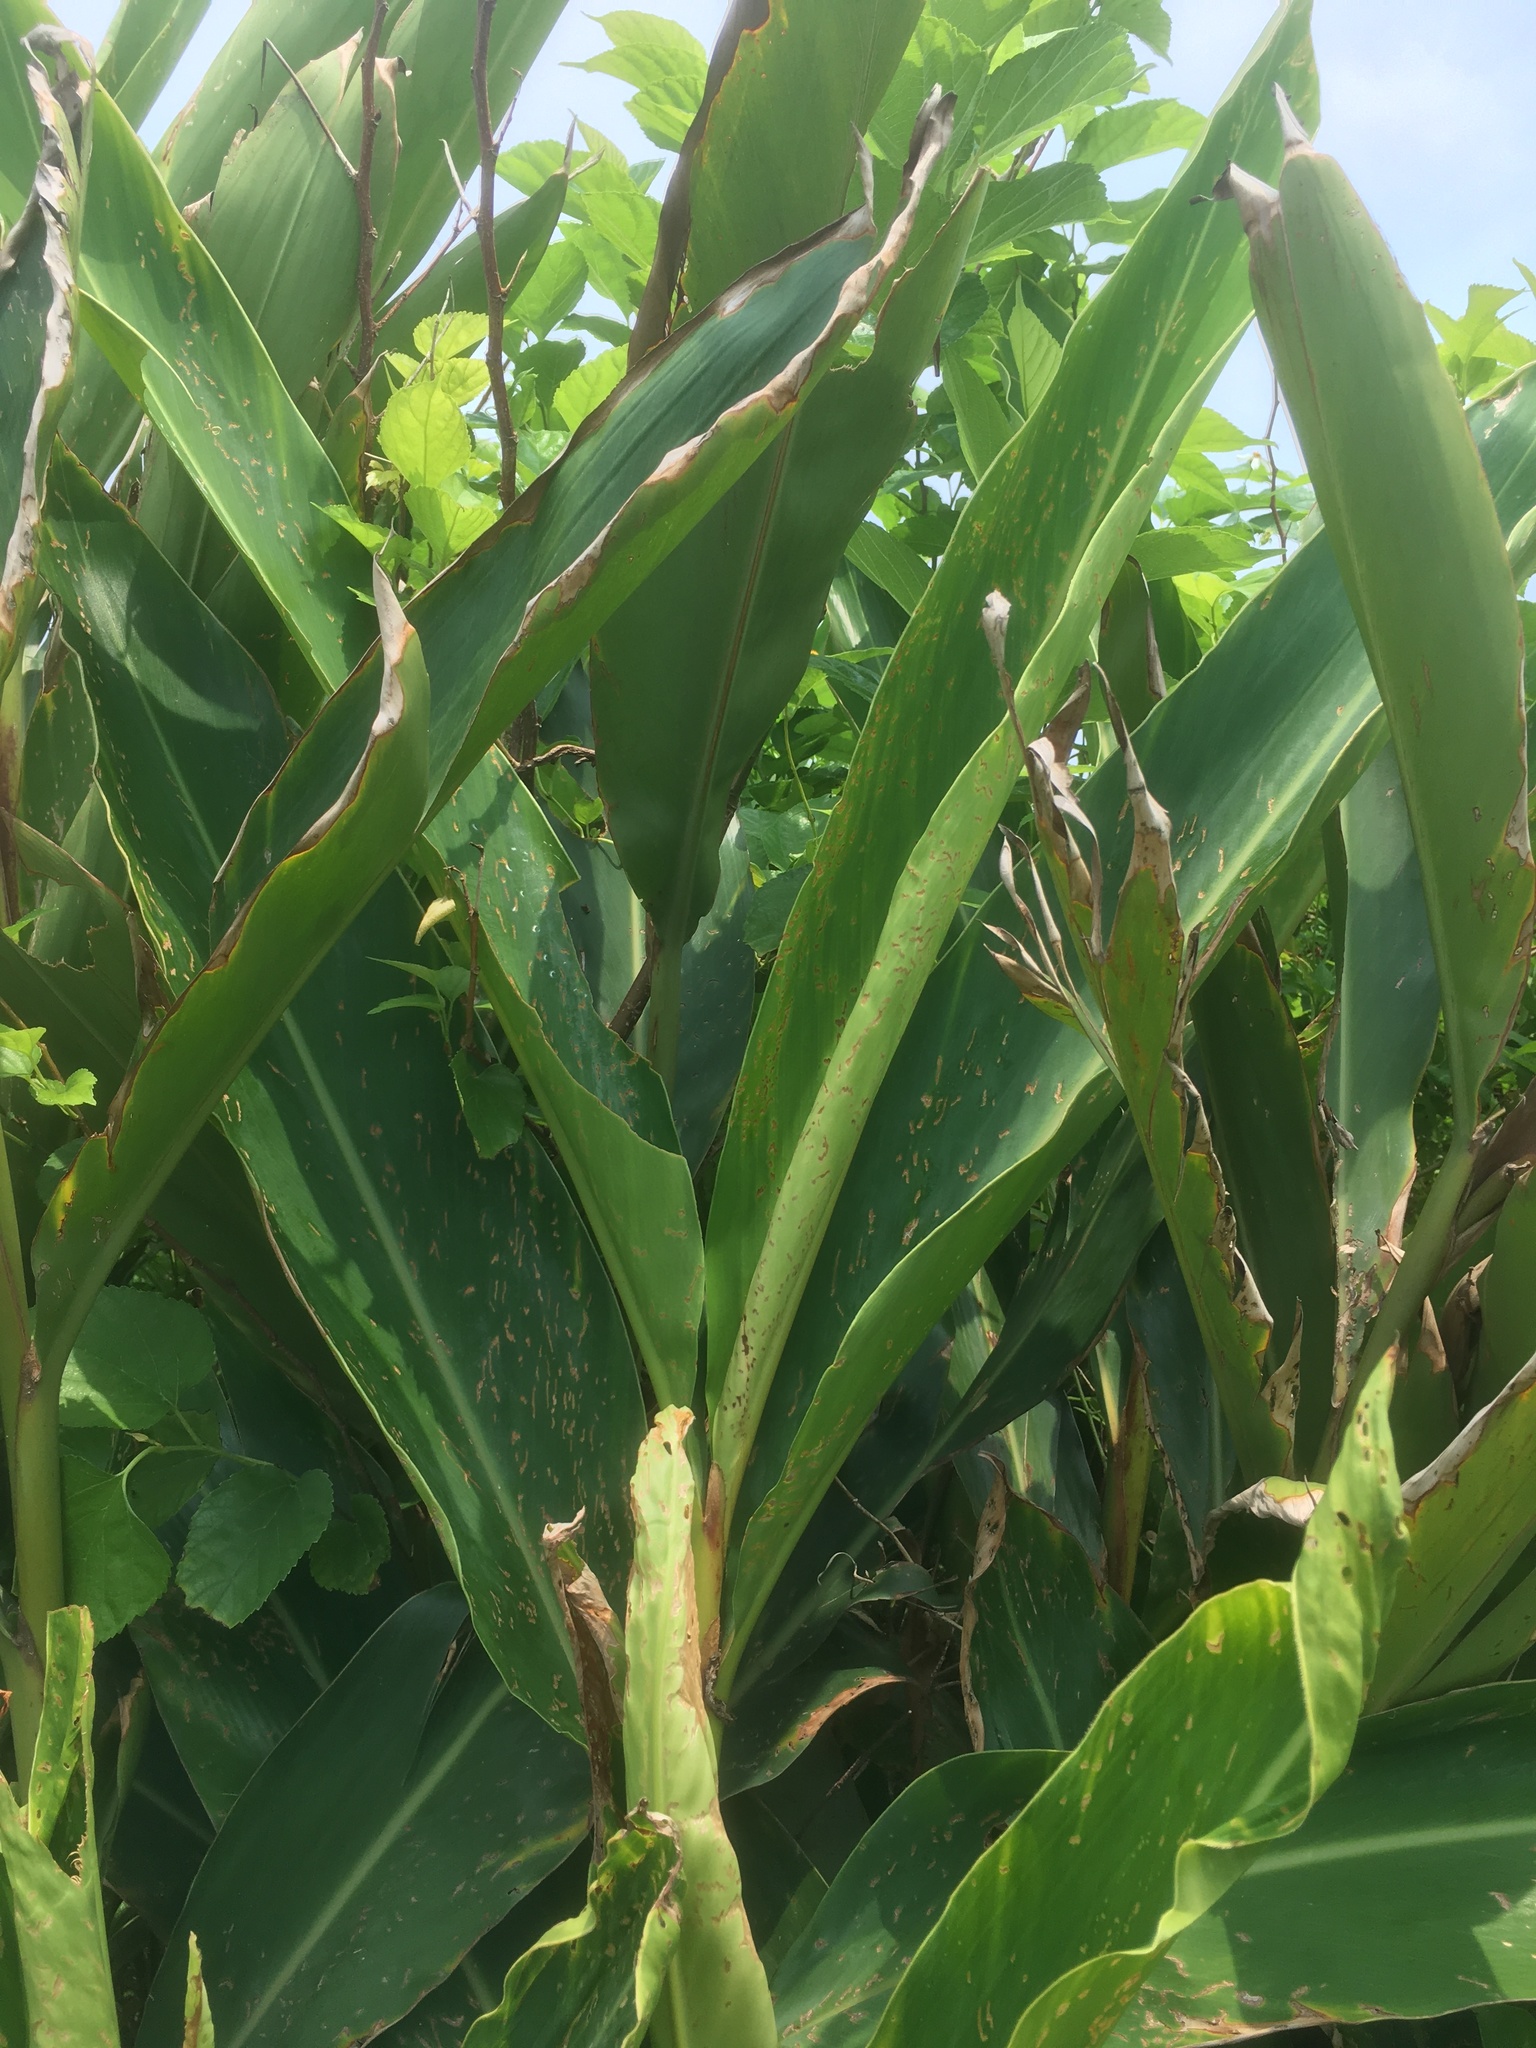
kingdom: Plantae
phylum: Tracheophyta
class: Liliopsida
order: Zingiberales
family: Zingiberaceae
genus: Alpinia
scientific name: Alpinia zerumbet
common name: Shellplant
